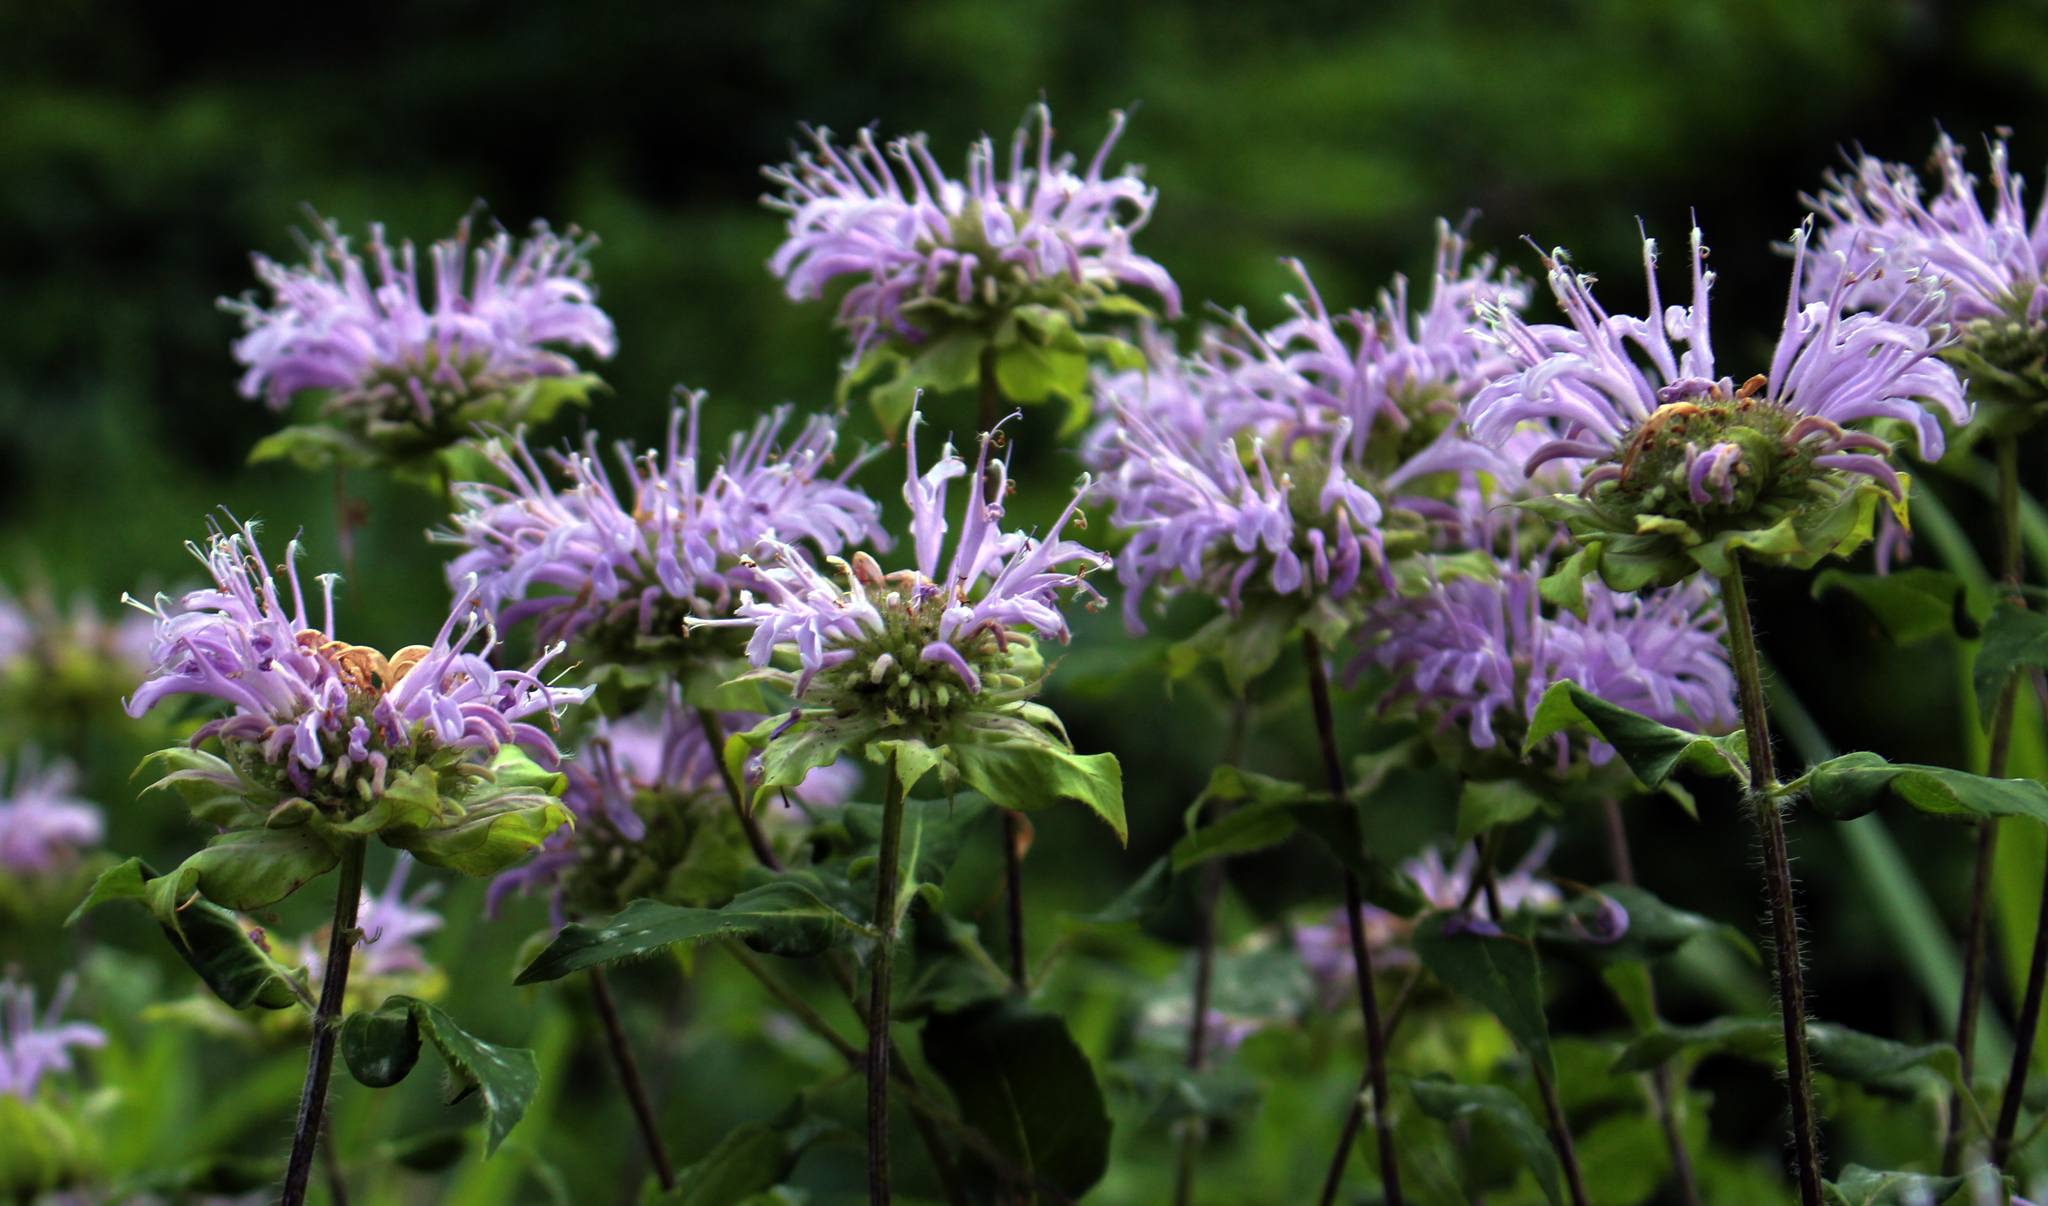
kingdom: Plantae
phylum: Tracheophyta
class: Magnoliopsida
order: Lamiales
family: Lamiaceae
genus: Monarda
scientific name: Monarda fistulosa
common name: Purple beebalm
